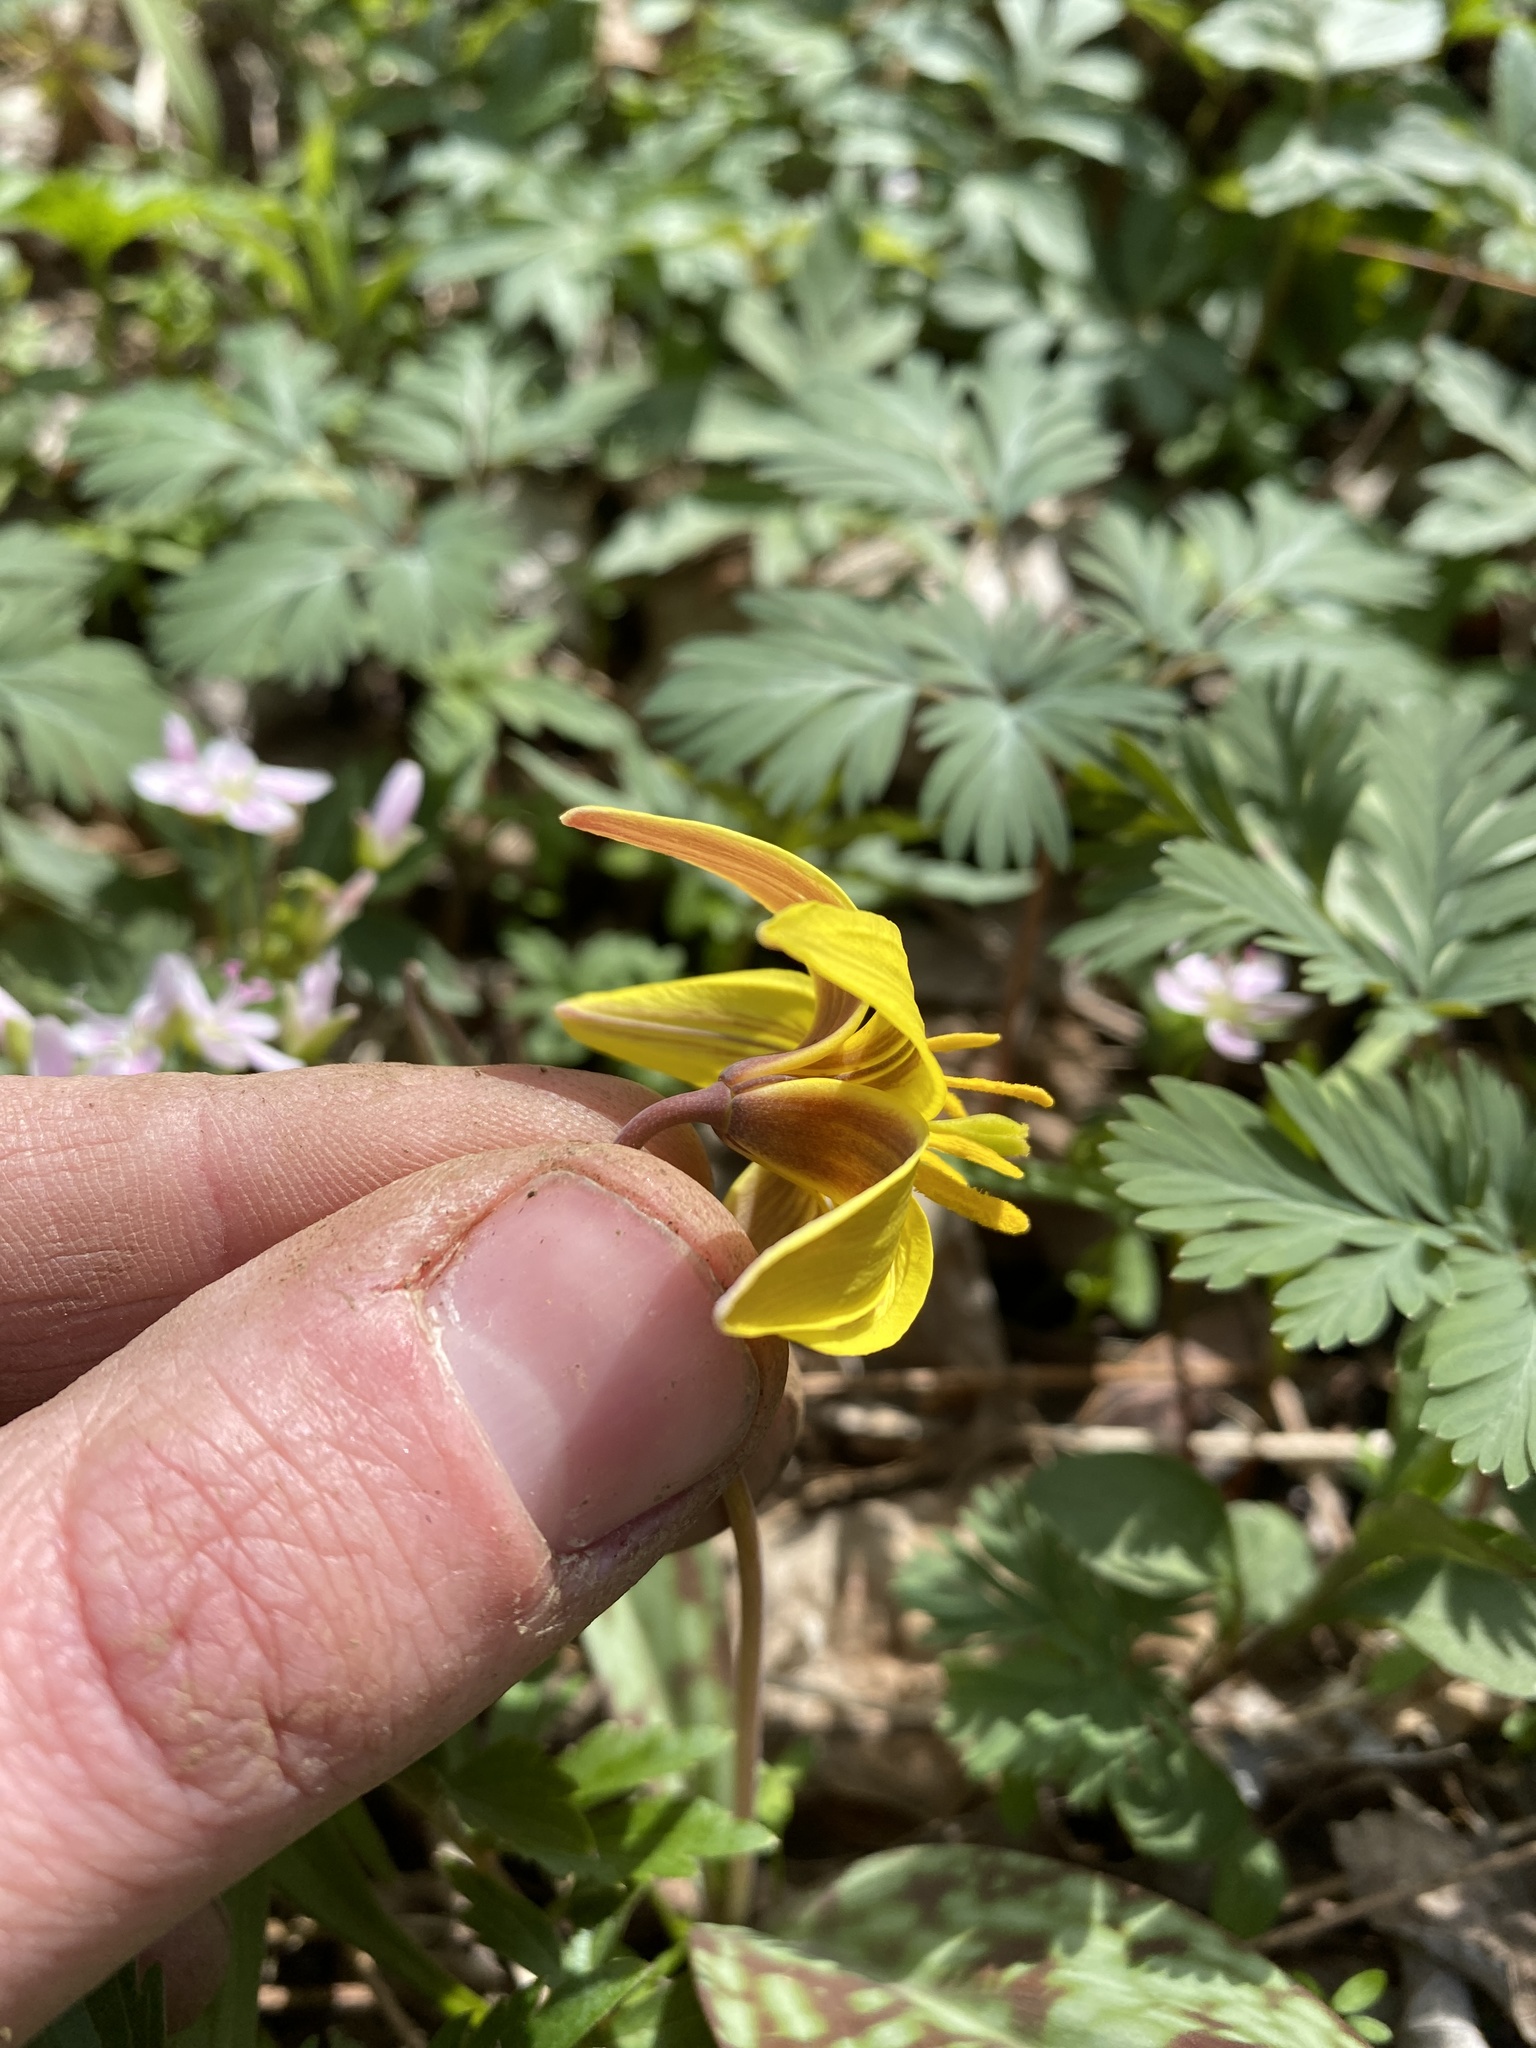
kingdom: Plantae
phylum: Tracheophyta
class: Liliopsida
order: Liliales
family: Liliaceae
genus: Erythronium
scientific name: Erythronium americanum
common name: Yellow adder's-tongue
